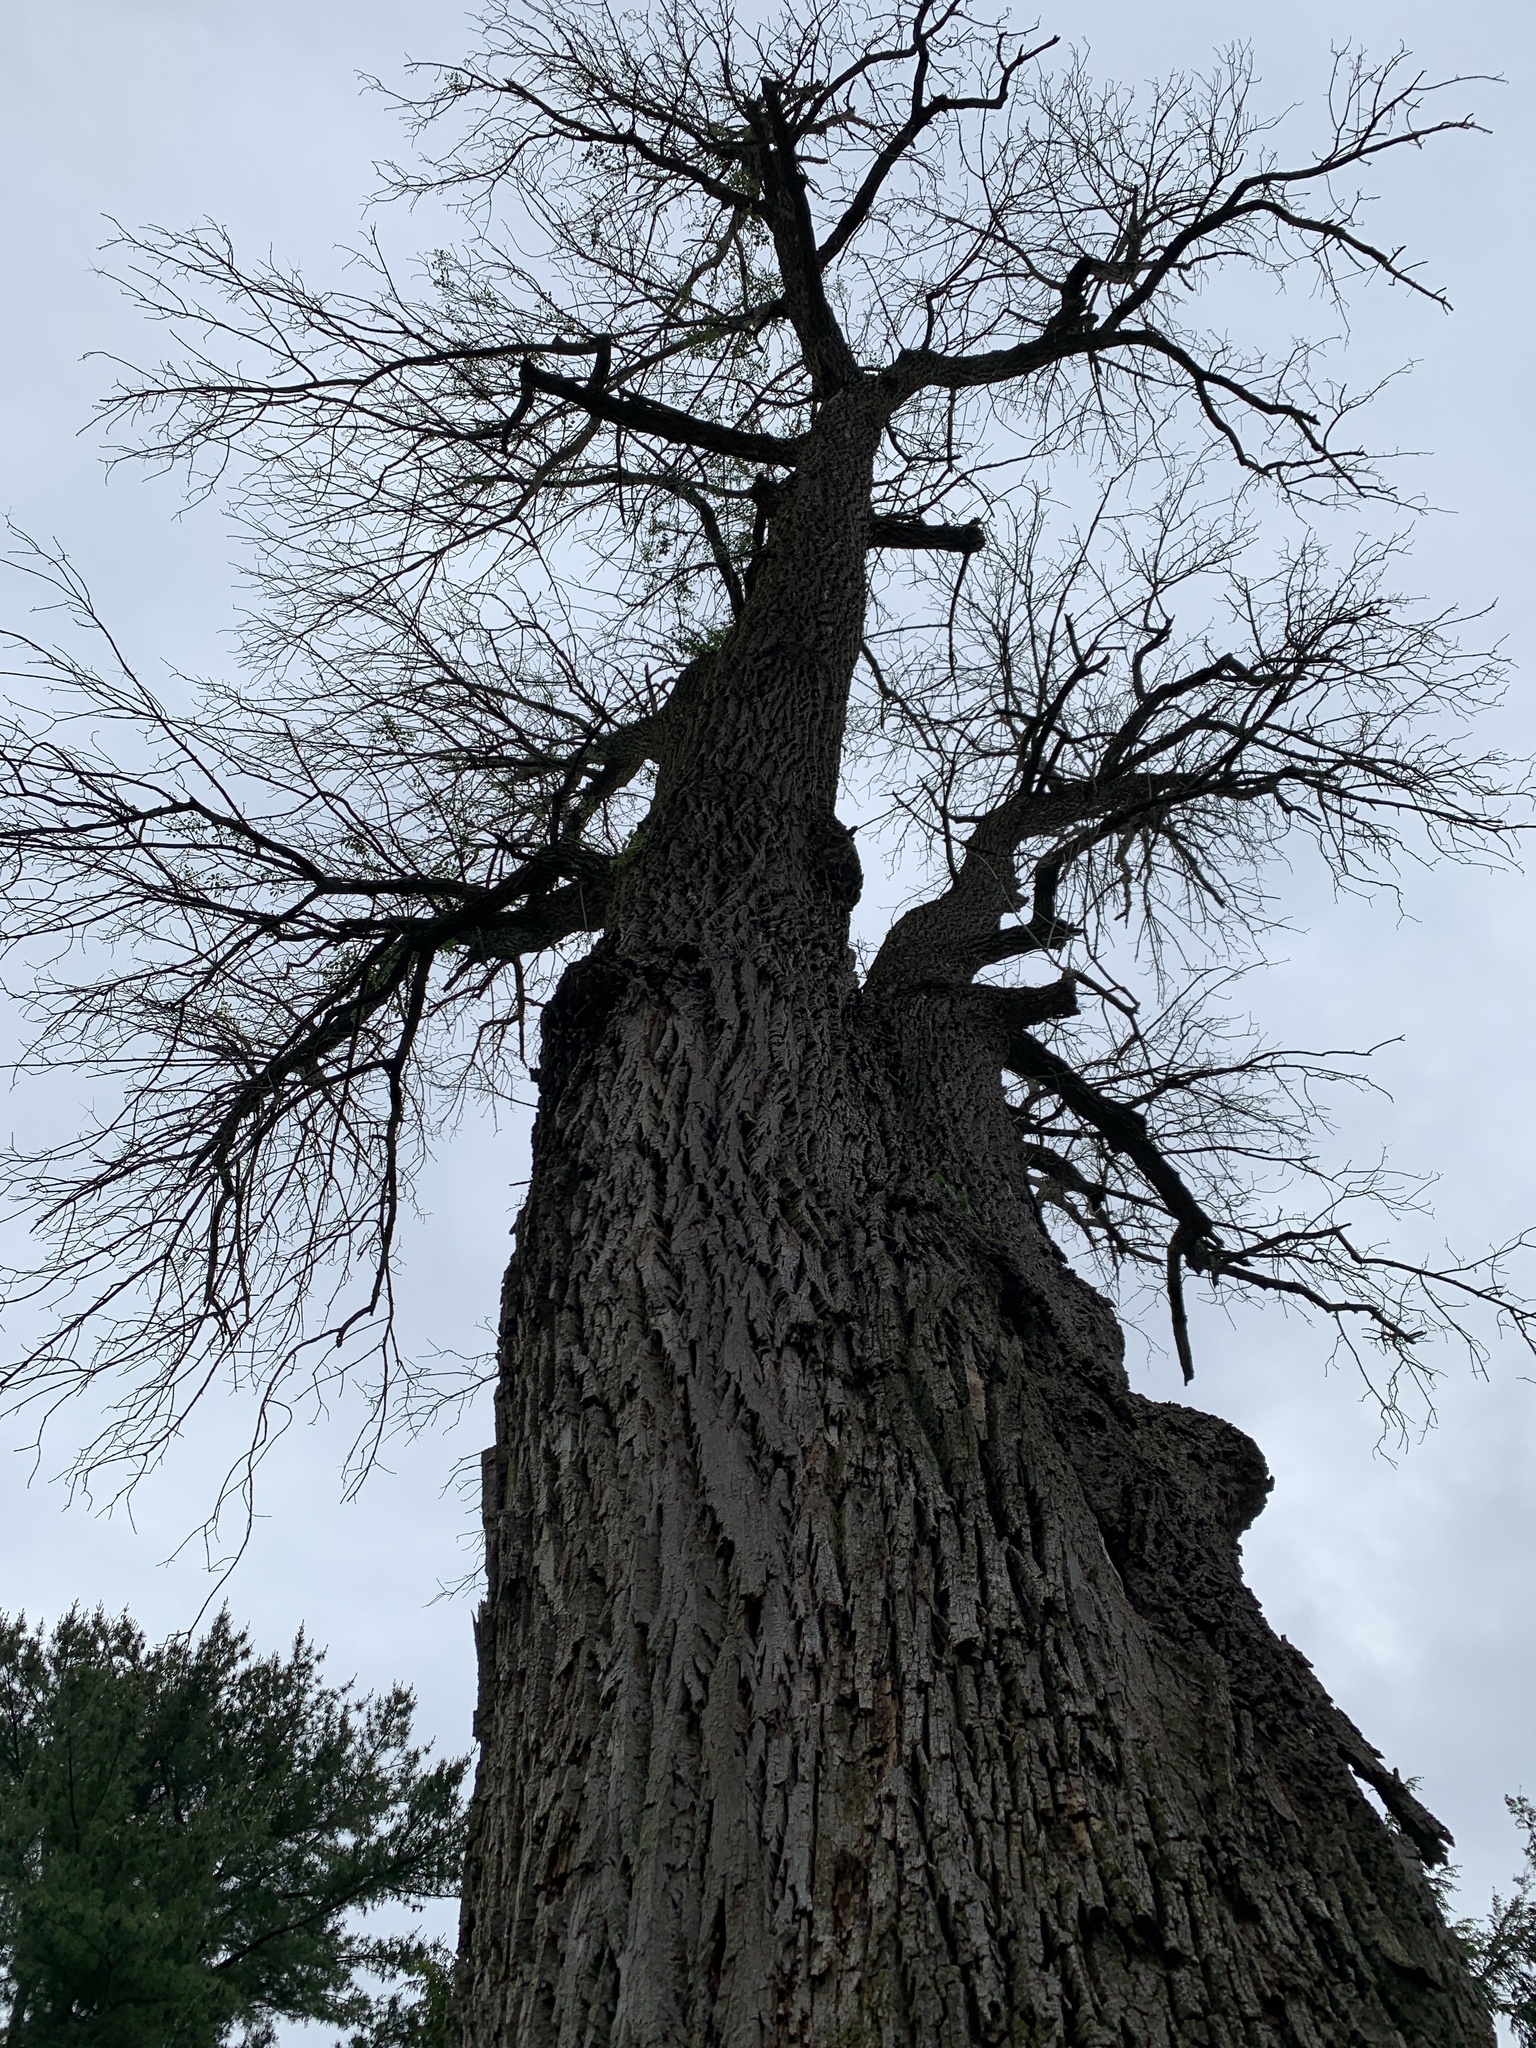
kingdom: Animalia
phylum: Arthropoda
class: Insecta
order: Coleoptera
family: Buprestidae
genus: Agrilus
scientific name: Agrilus planipennis
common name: Emerald ash borer
